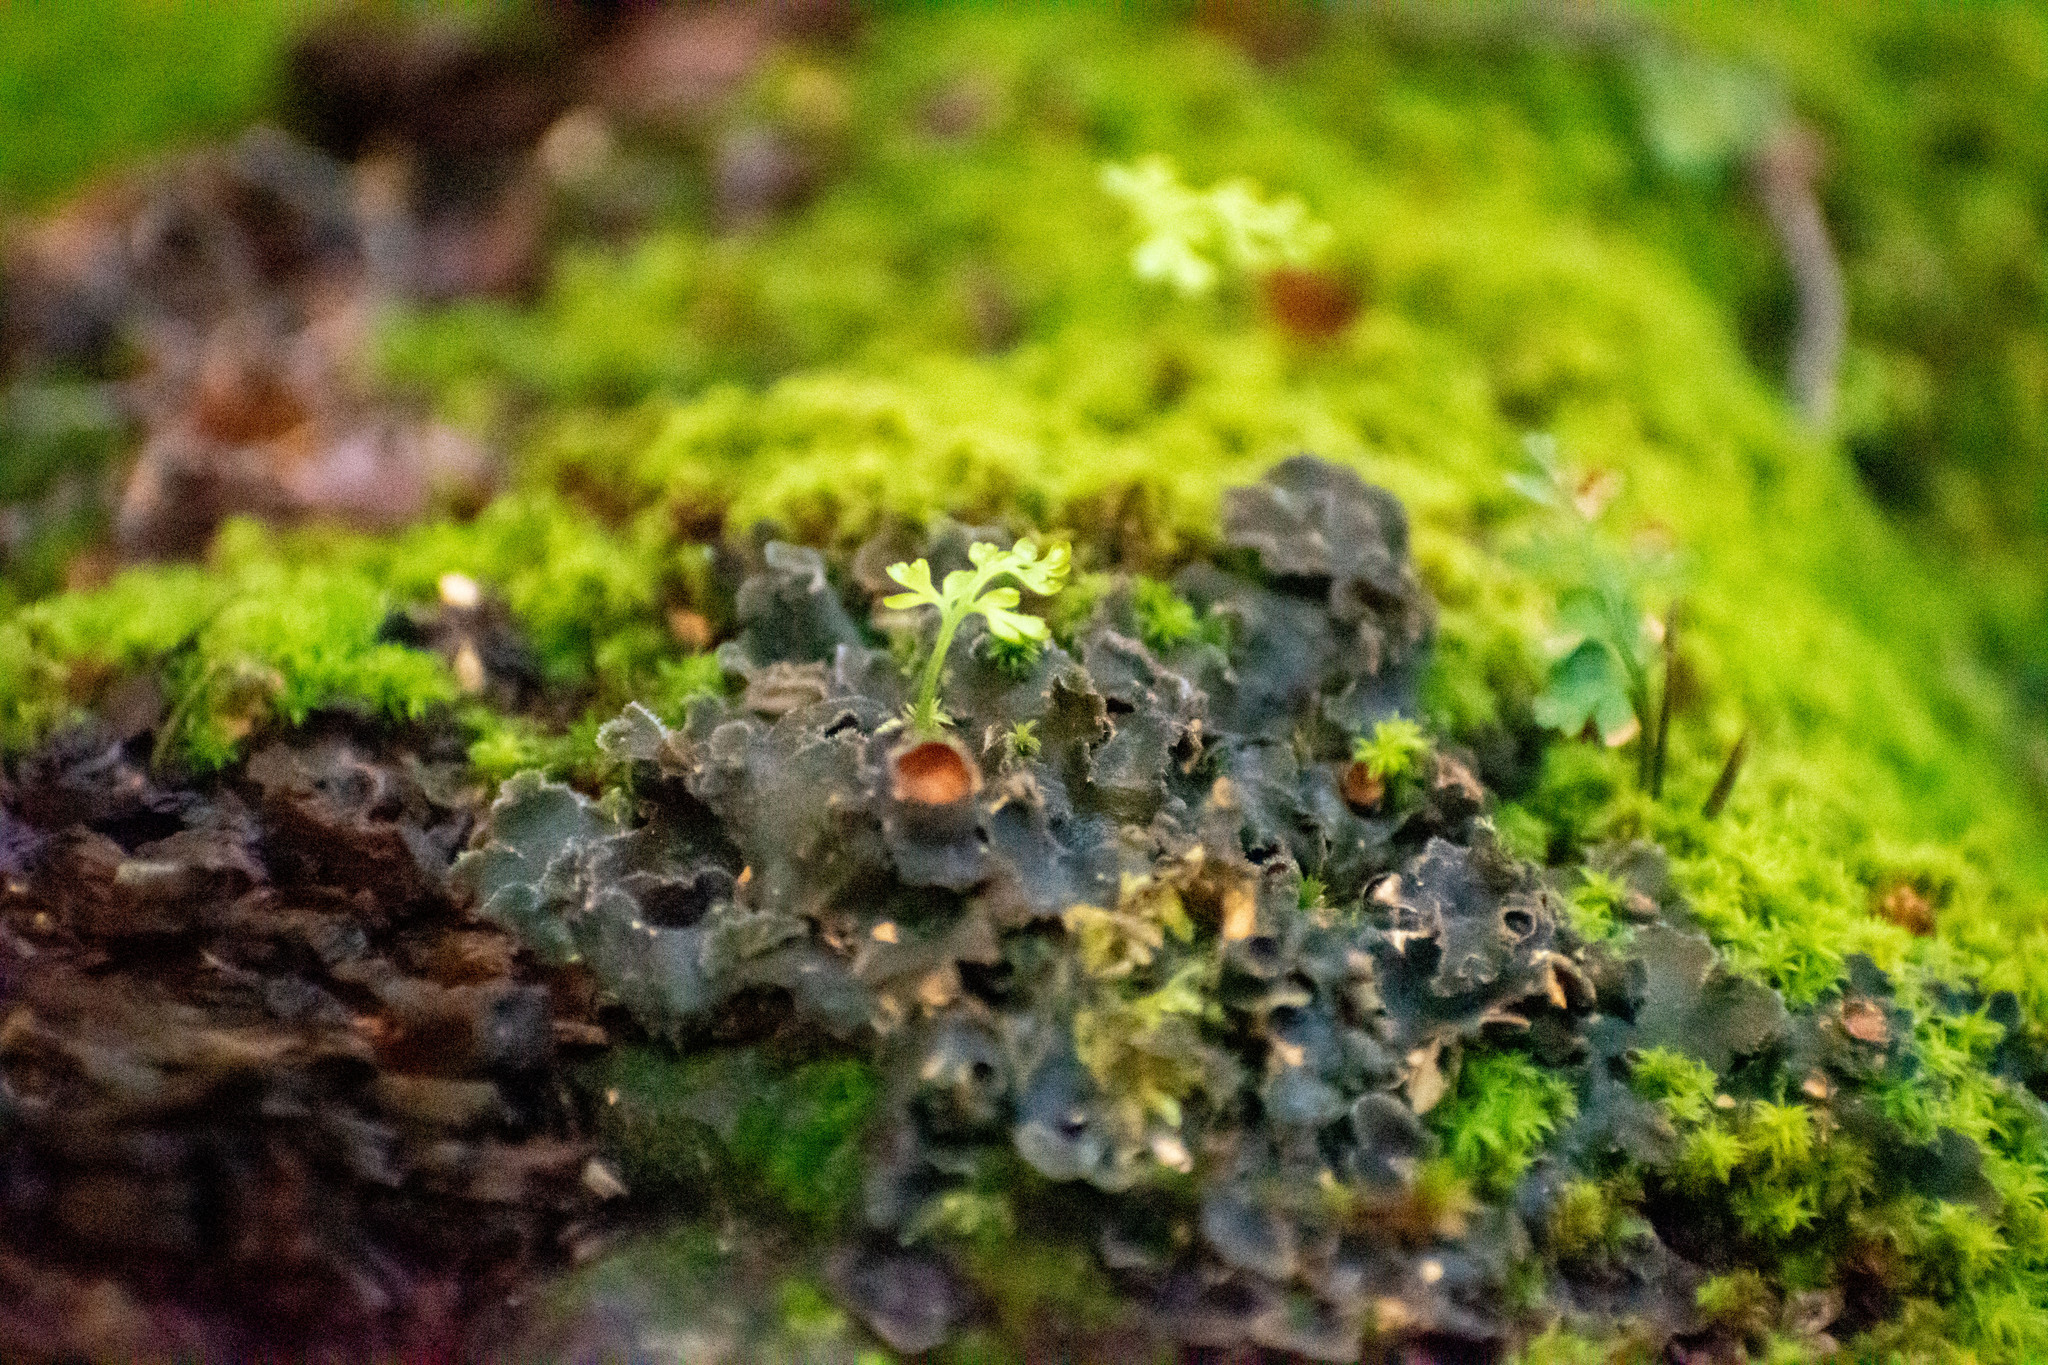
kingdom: Fungi
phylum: Ascomycota
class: Lecanoromycetes
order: Peltigerales
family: Peltigeraceae
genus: Peltigera
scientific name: Peltigera horizontalis
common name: Flat fruited pelt
